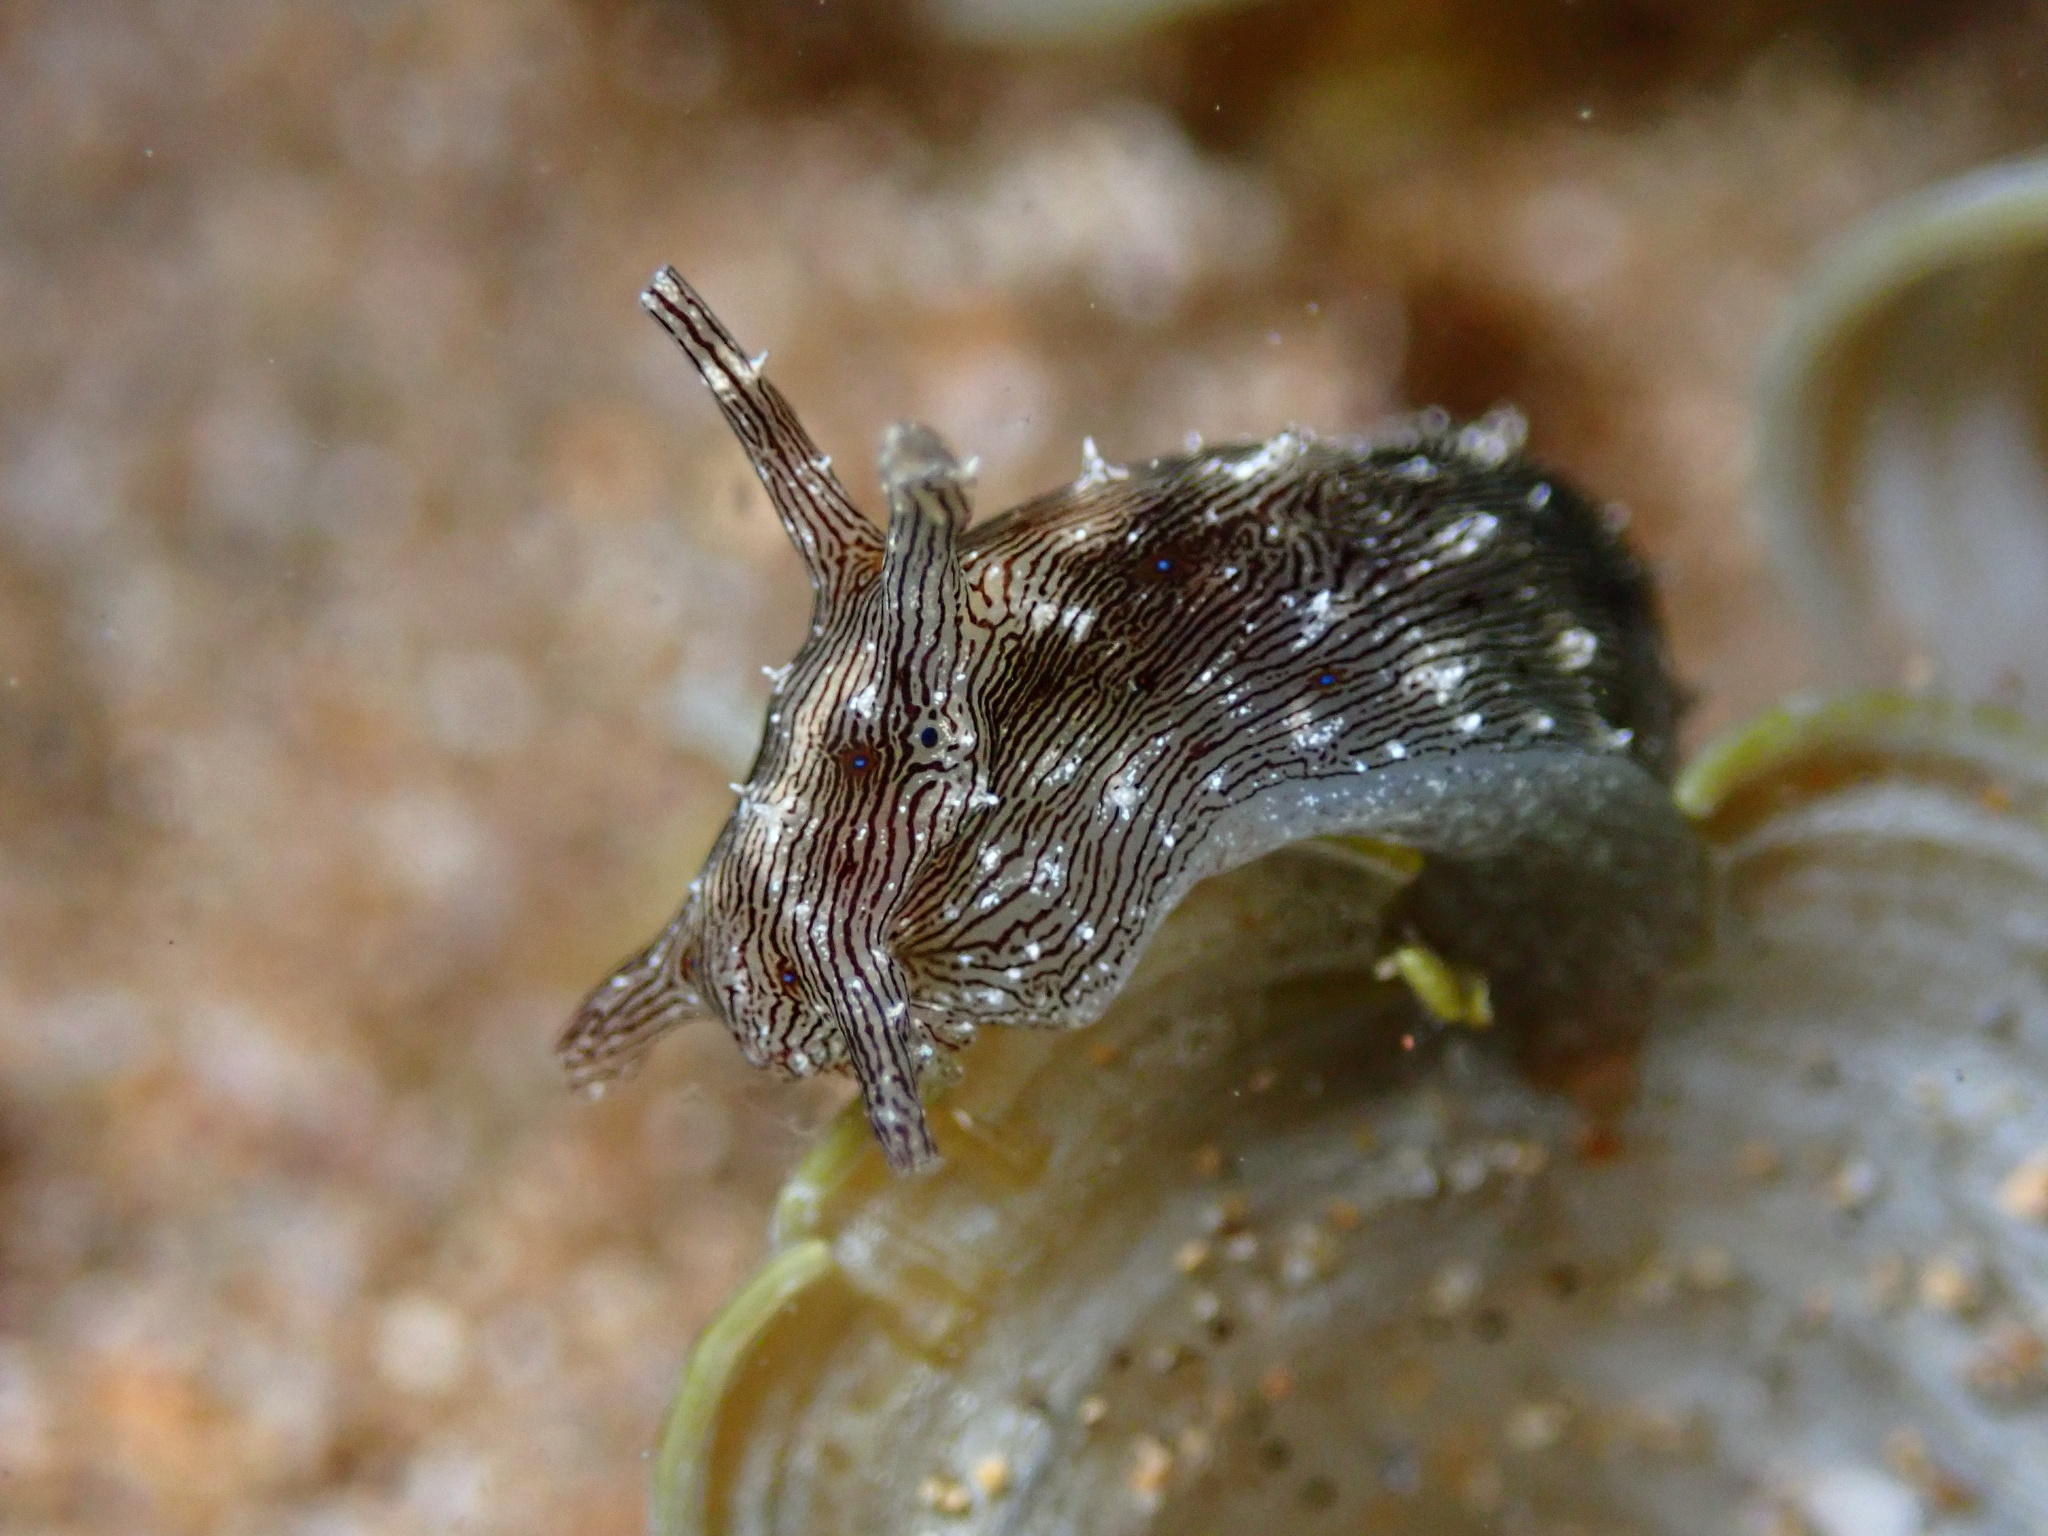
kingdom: Animalia
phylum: Mollusca
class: Gastropoda
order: Aplysiida
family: Aplysiidae
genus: Stylocheilus
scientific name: Stylocheilus striatus
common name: Striated seahare
